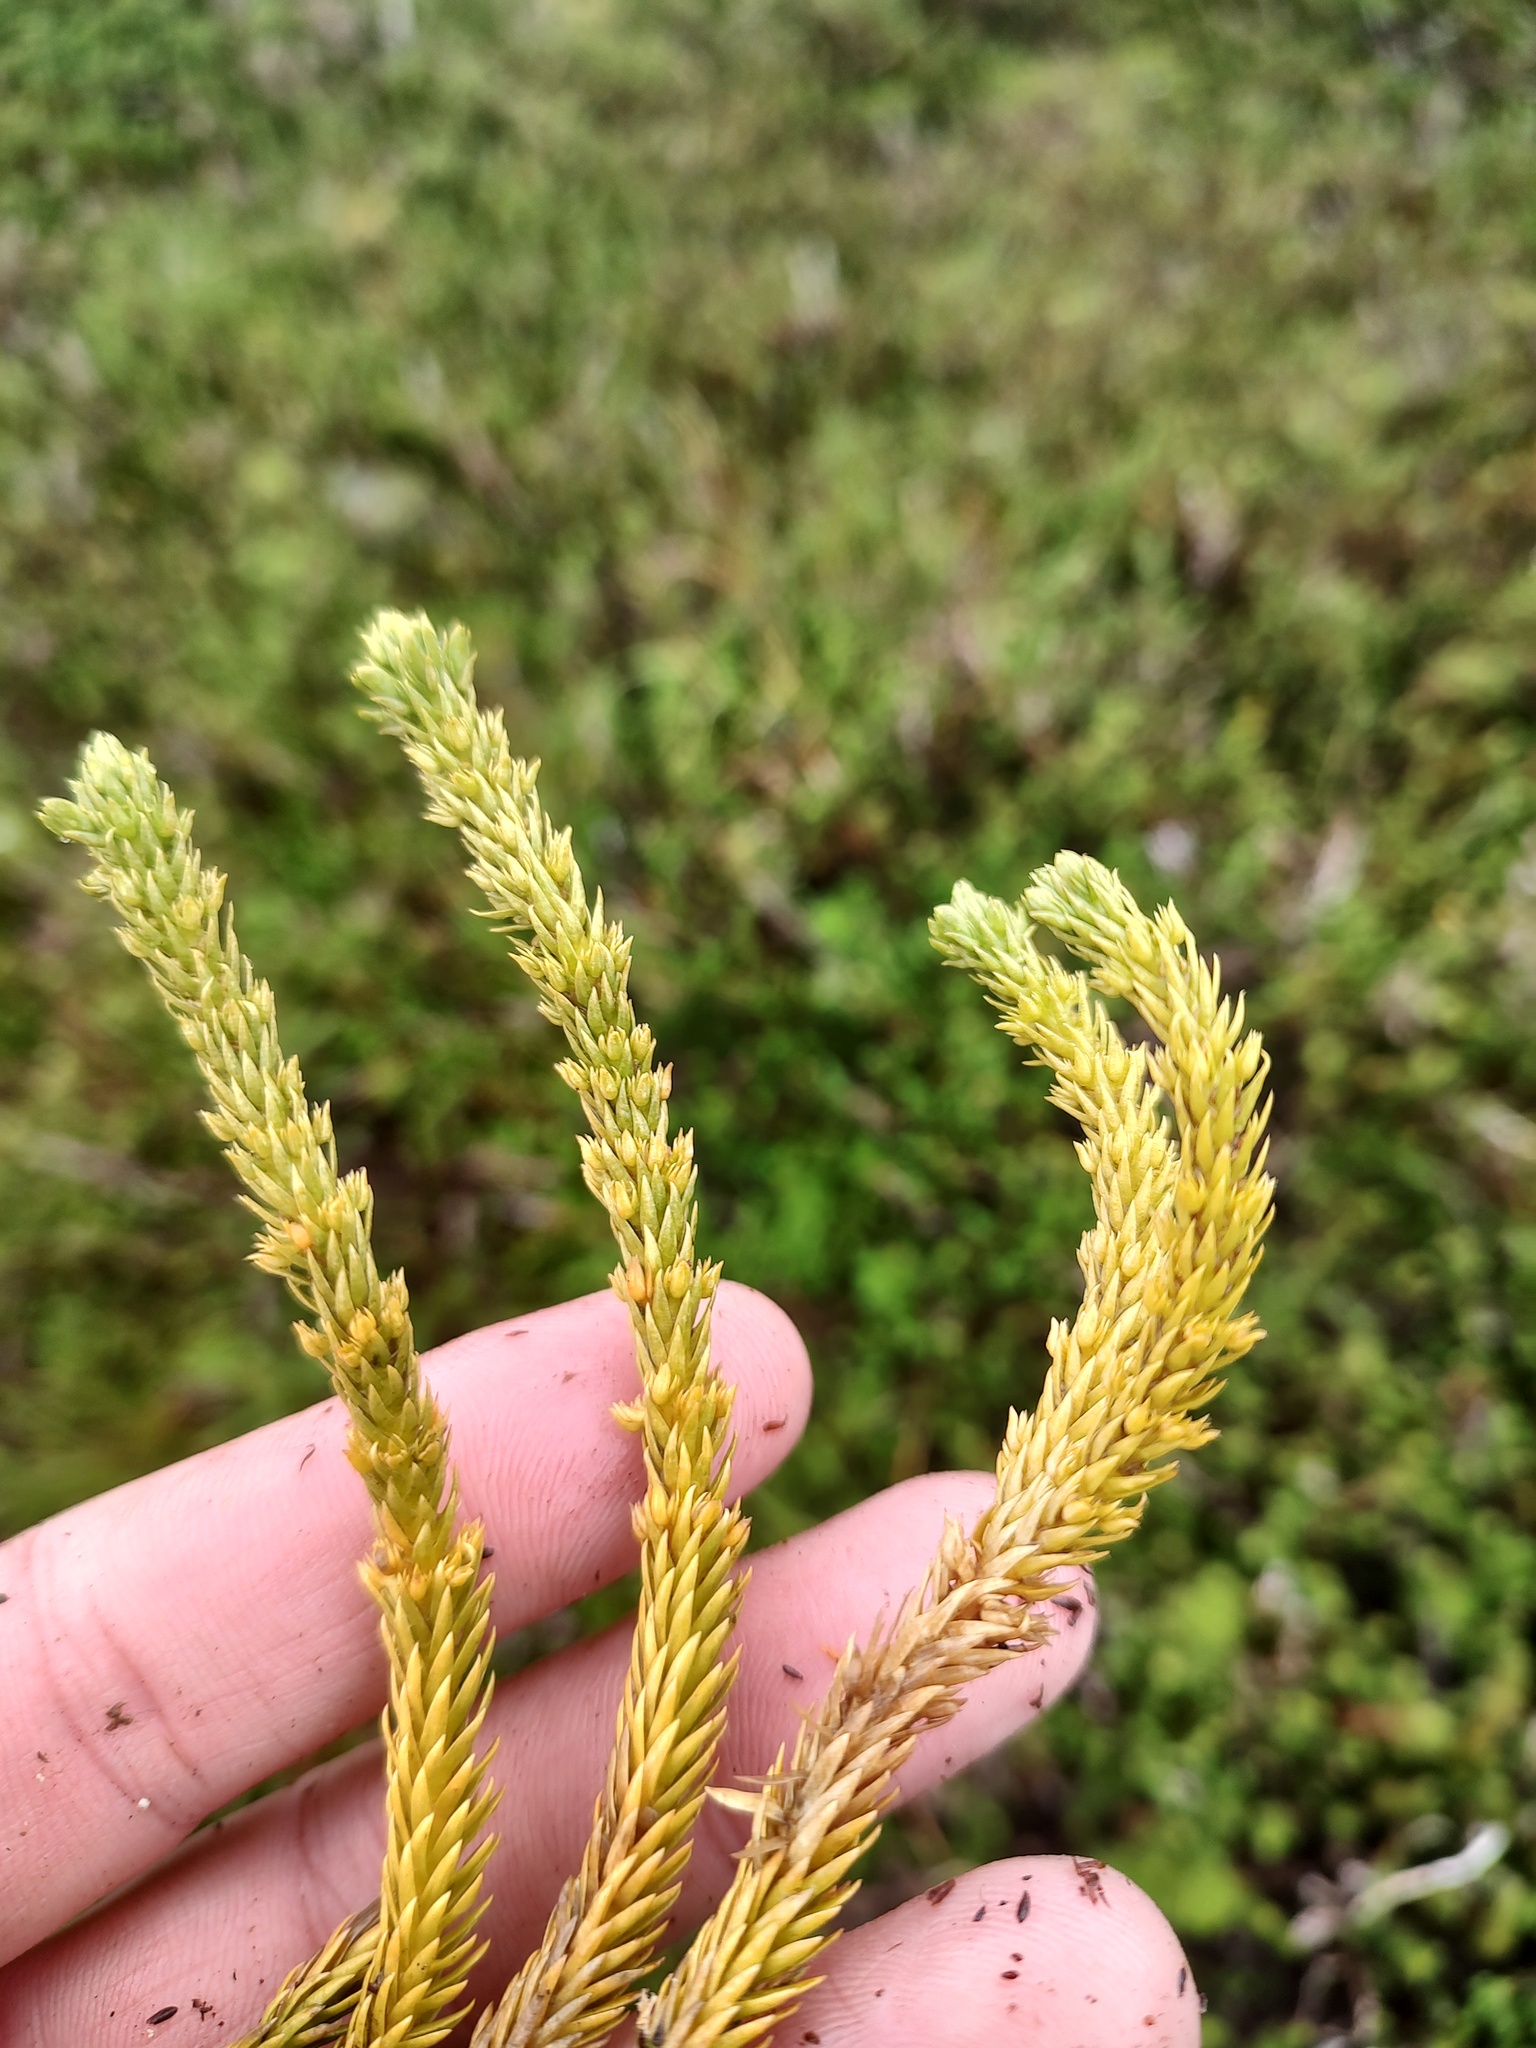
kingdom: Plantae
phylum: Tracheophyta
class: Lycopodiopsida
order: Lycopodiales
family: Lycopodiaceae
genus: Huperzia
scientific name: Huperzia continentalis
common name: Continental firmoss
